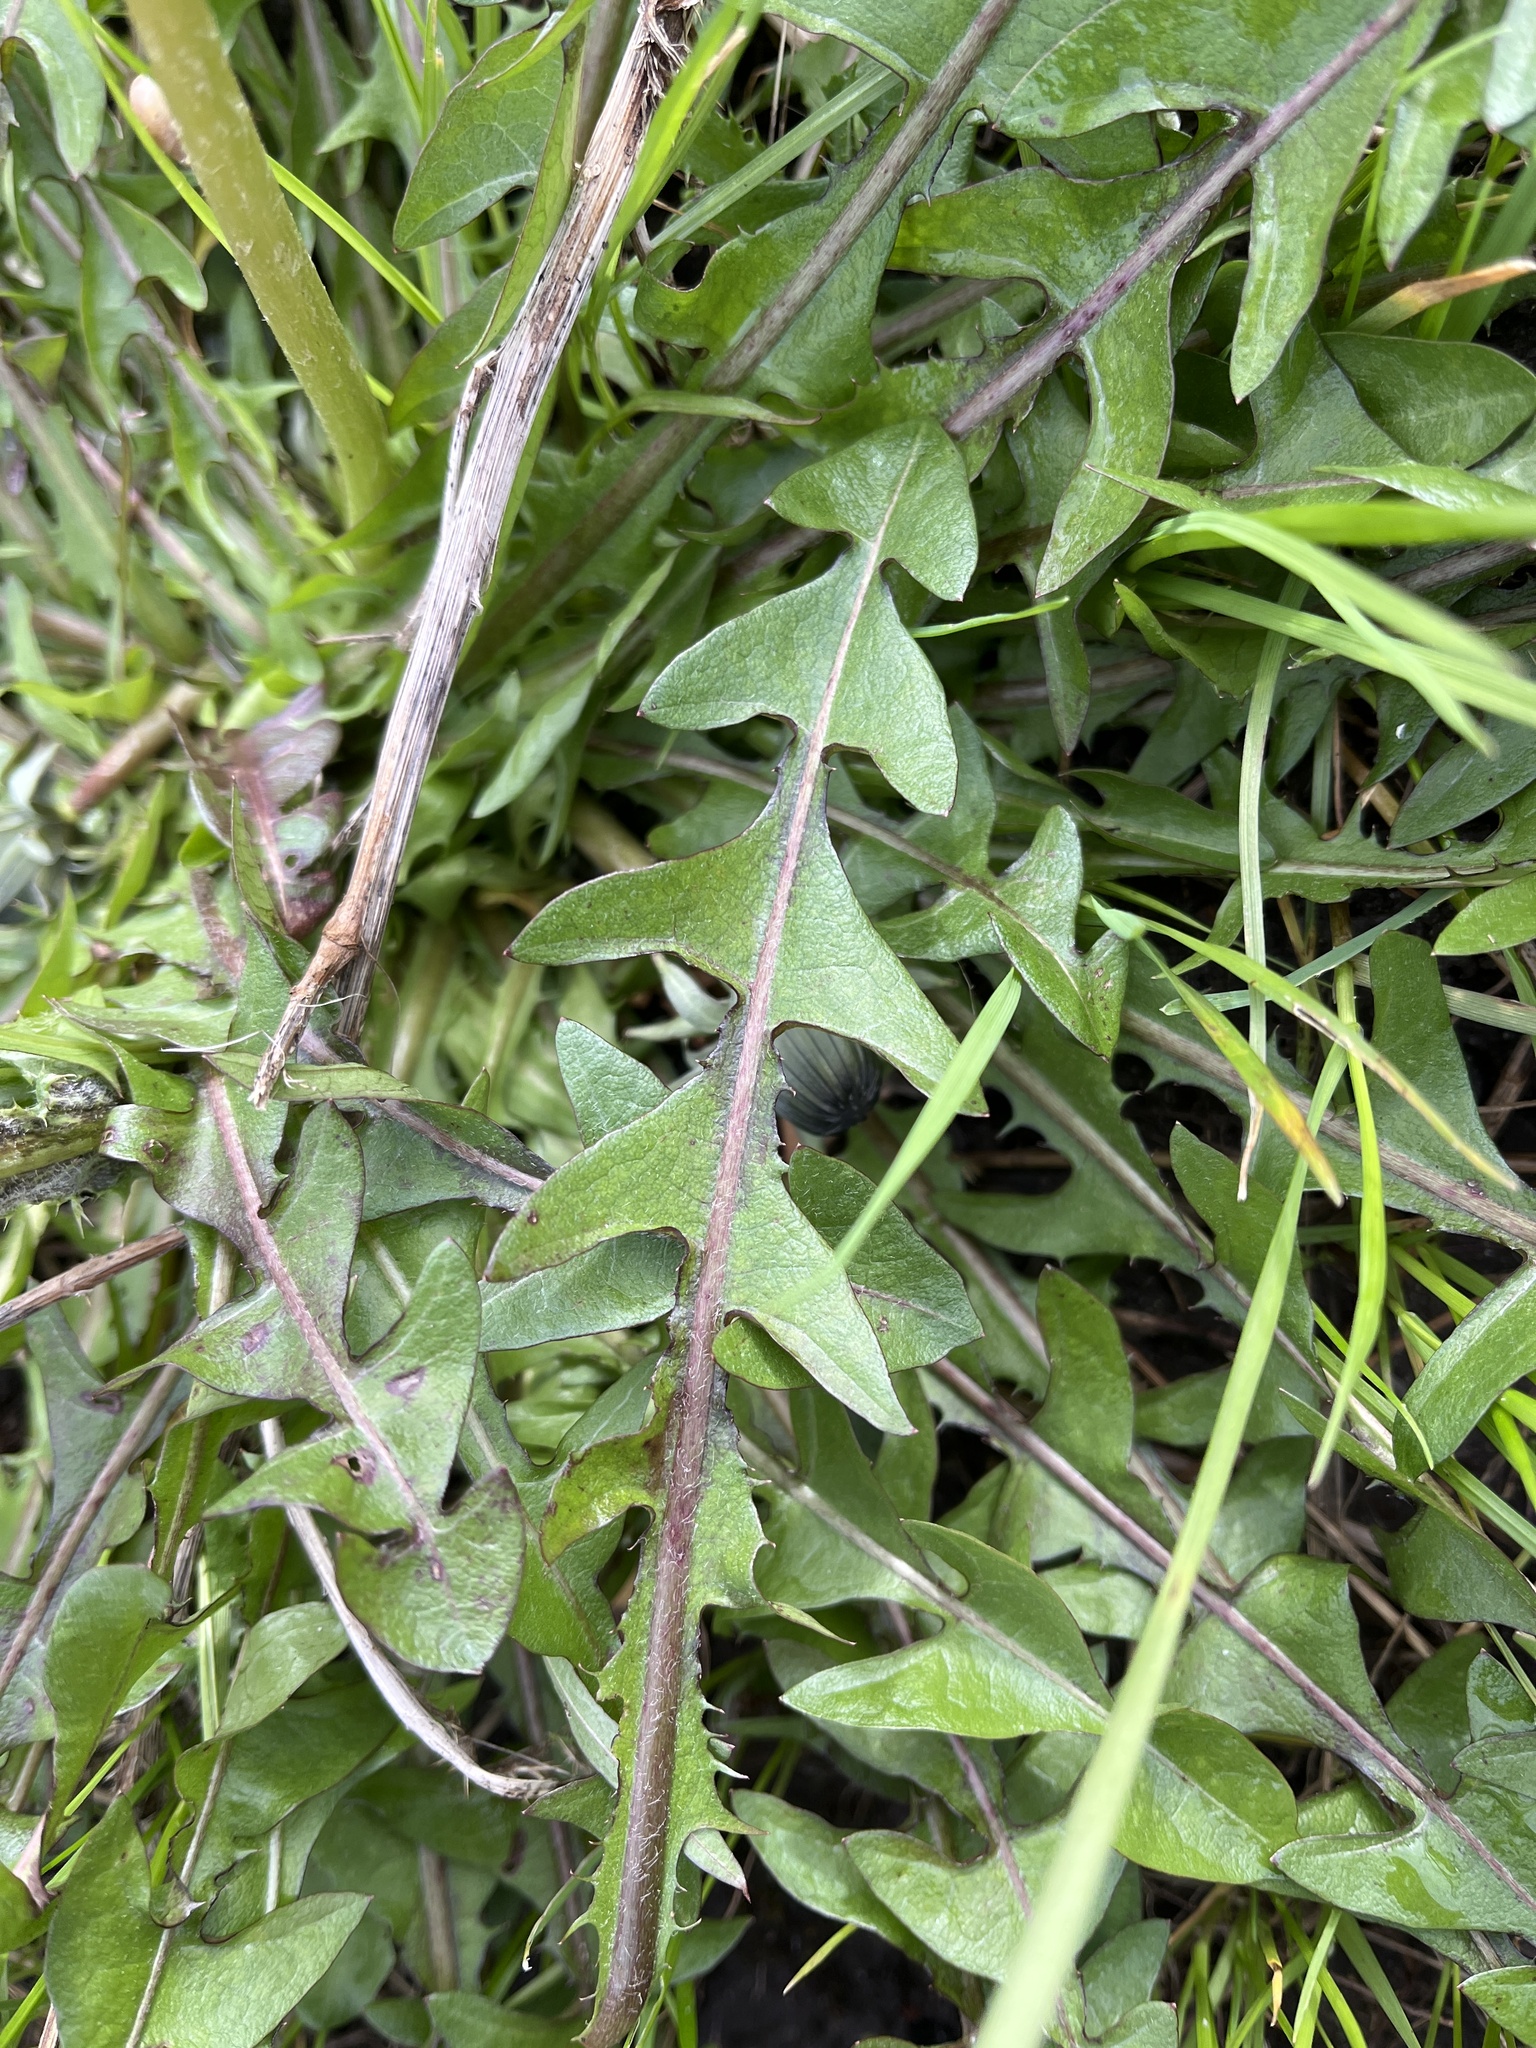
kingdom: Plantae
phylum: Tracheophyta
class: Magnoliopsida
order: Asterales
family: Asteraceae
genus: Taraxacum
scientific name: Taraxacum lamprophyllum
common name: Lustrous-leaved dandelion
